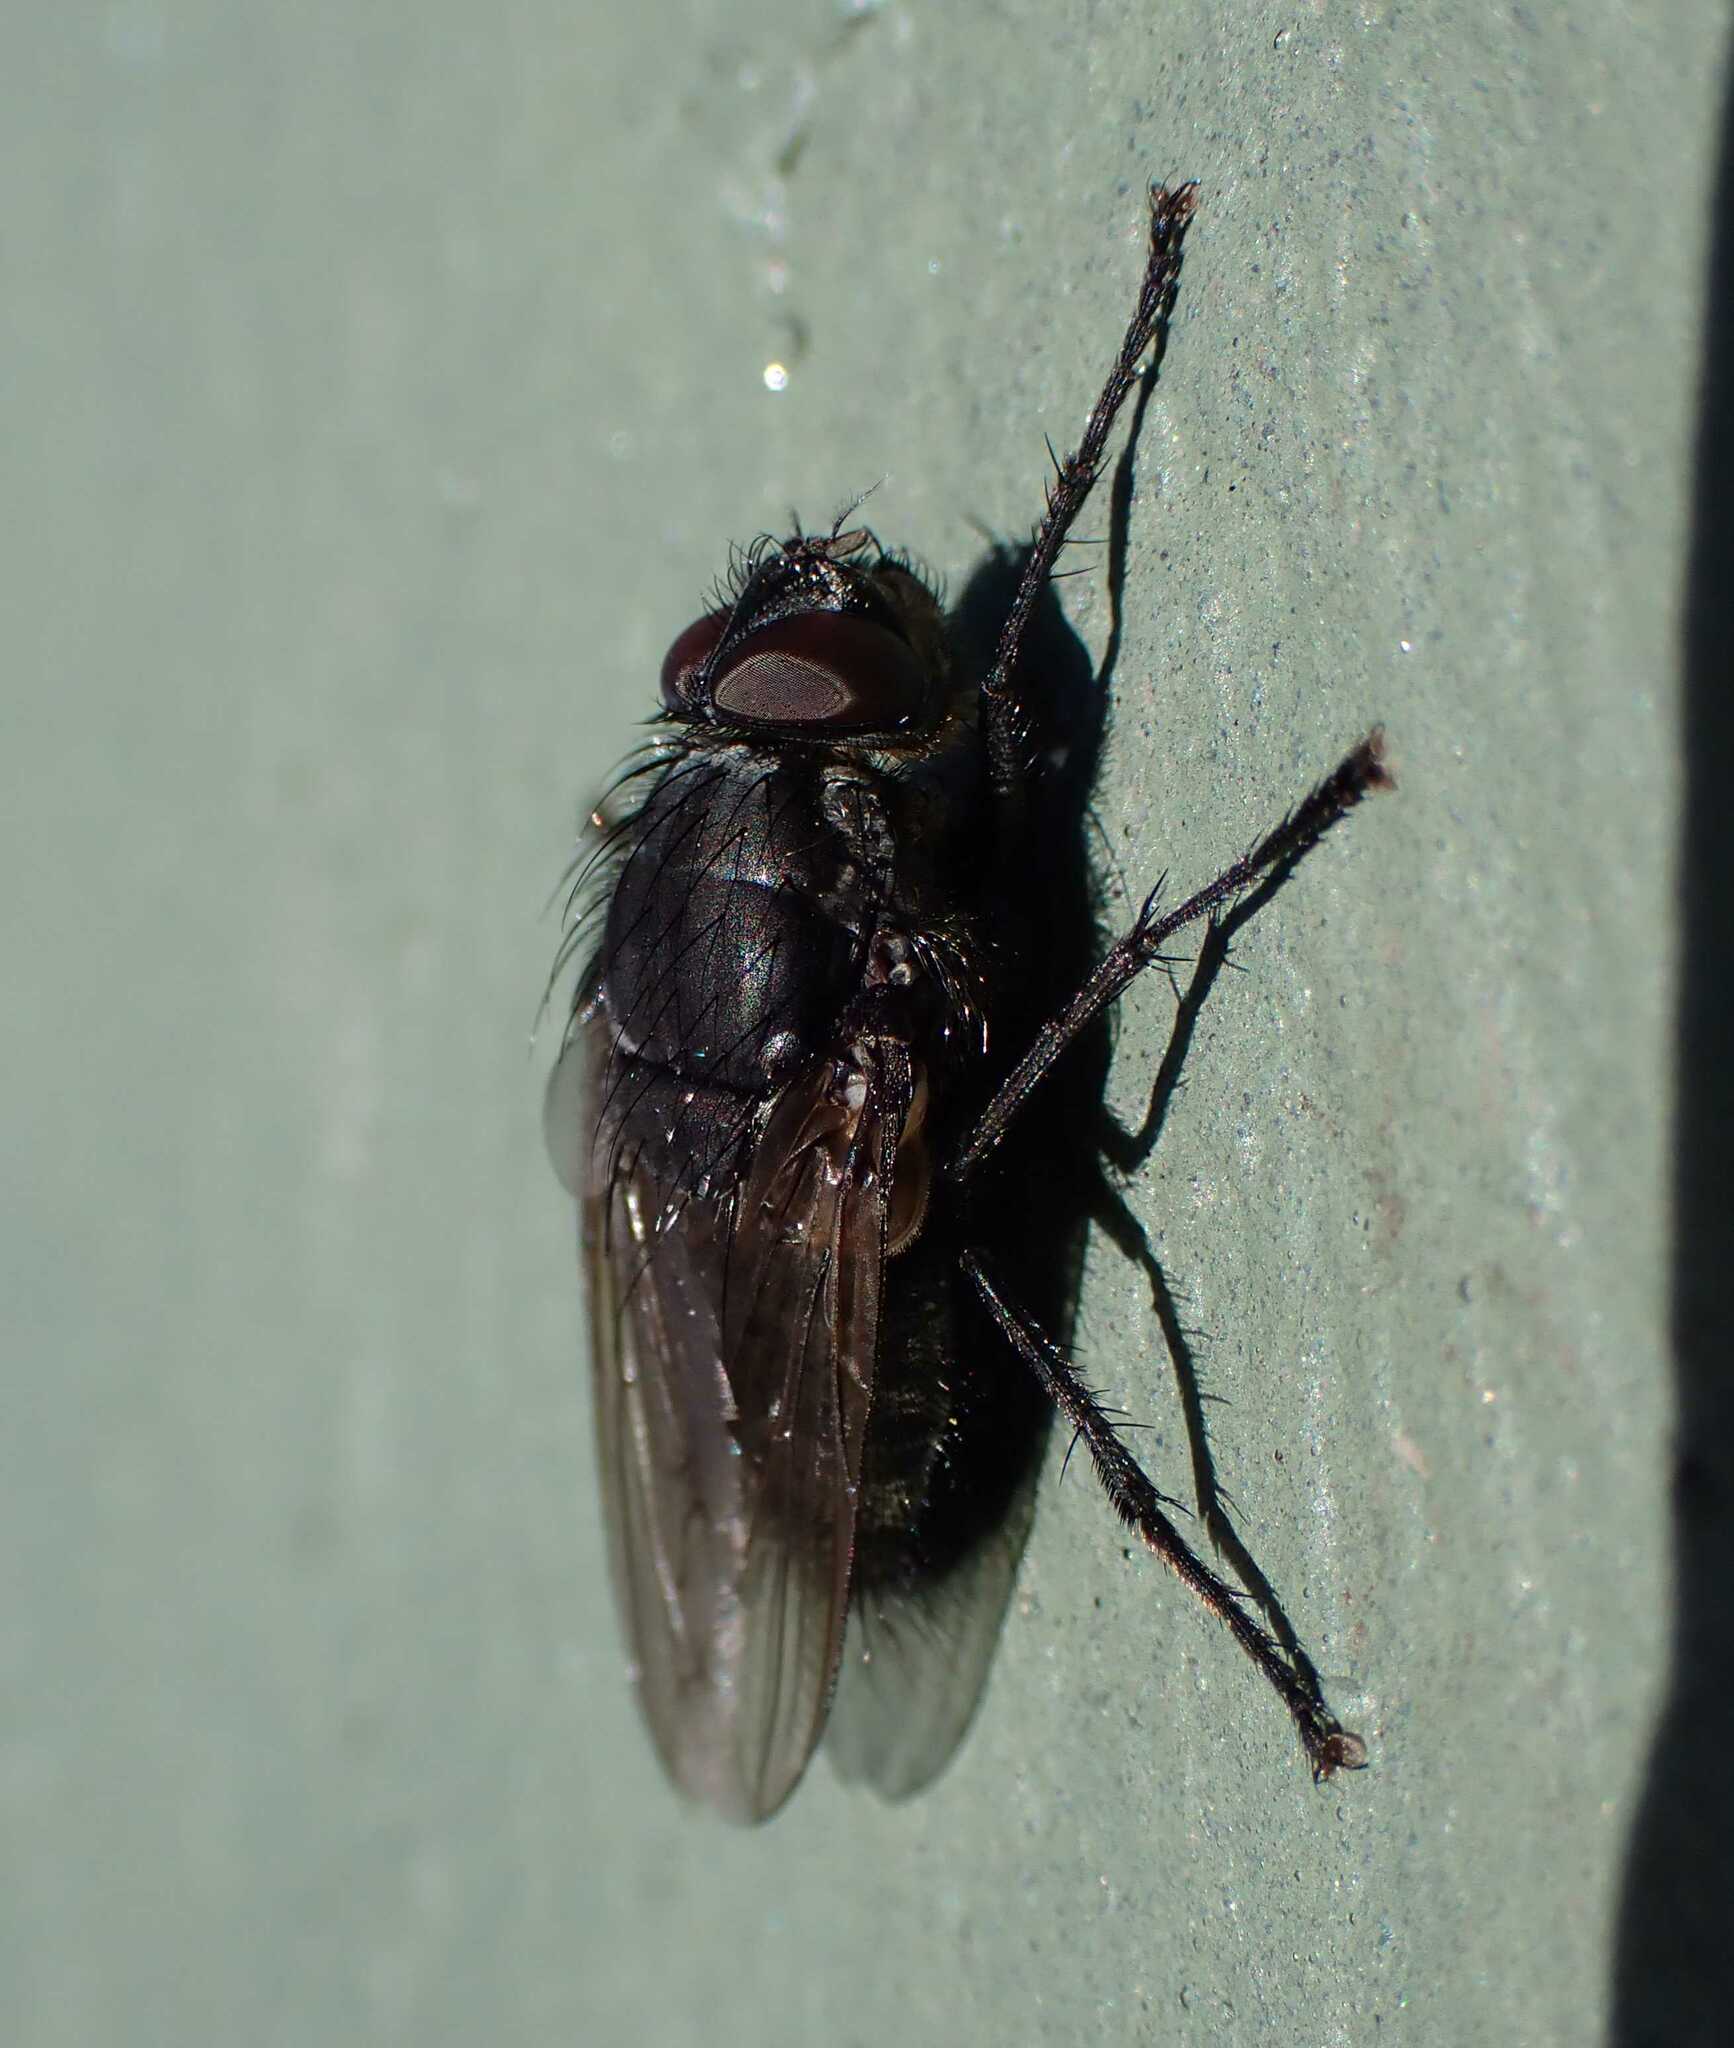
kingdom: Animalia
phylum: Arthropoda
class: Insecta
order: Diptera
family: Polleniidae
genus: Pollenia
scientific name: Pollenia vagabunda
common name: Vagabund cluster fly
